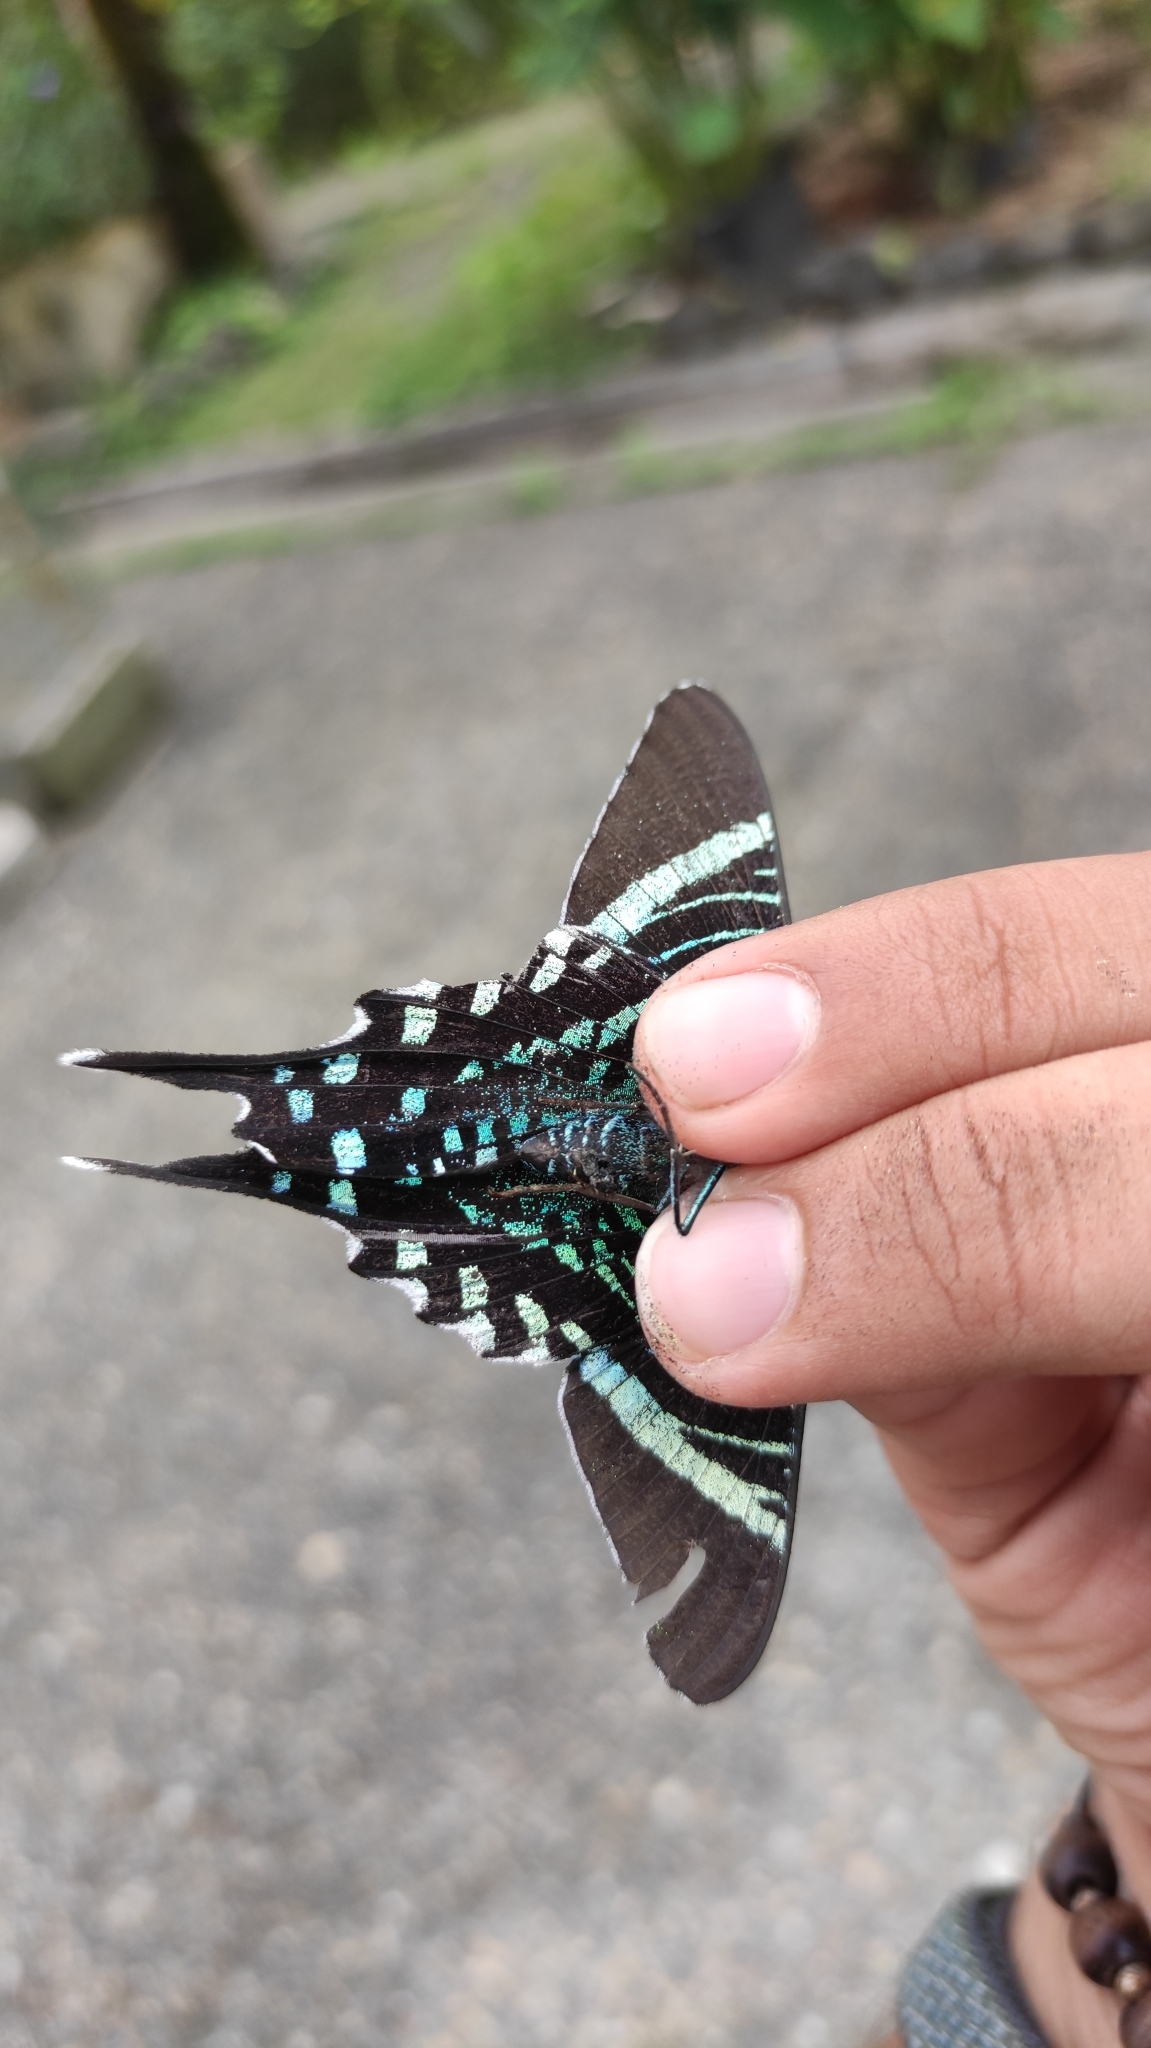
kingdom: Animalia
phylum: Arthropoda
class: Insecta
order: Lepidoptera
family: Uraniidae
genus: Urania
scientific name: Urania fulgens
